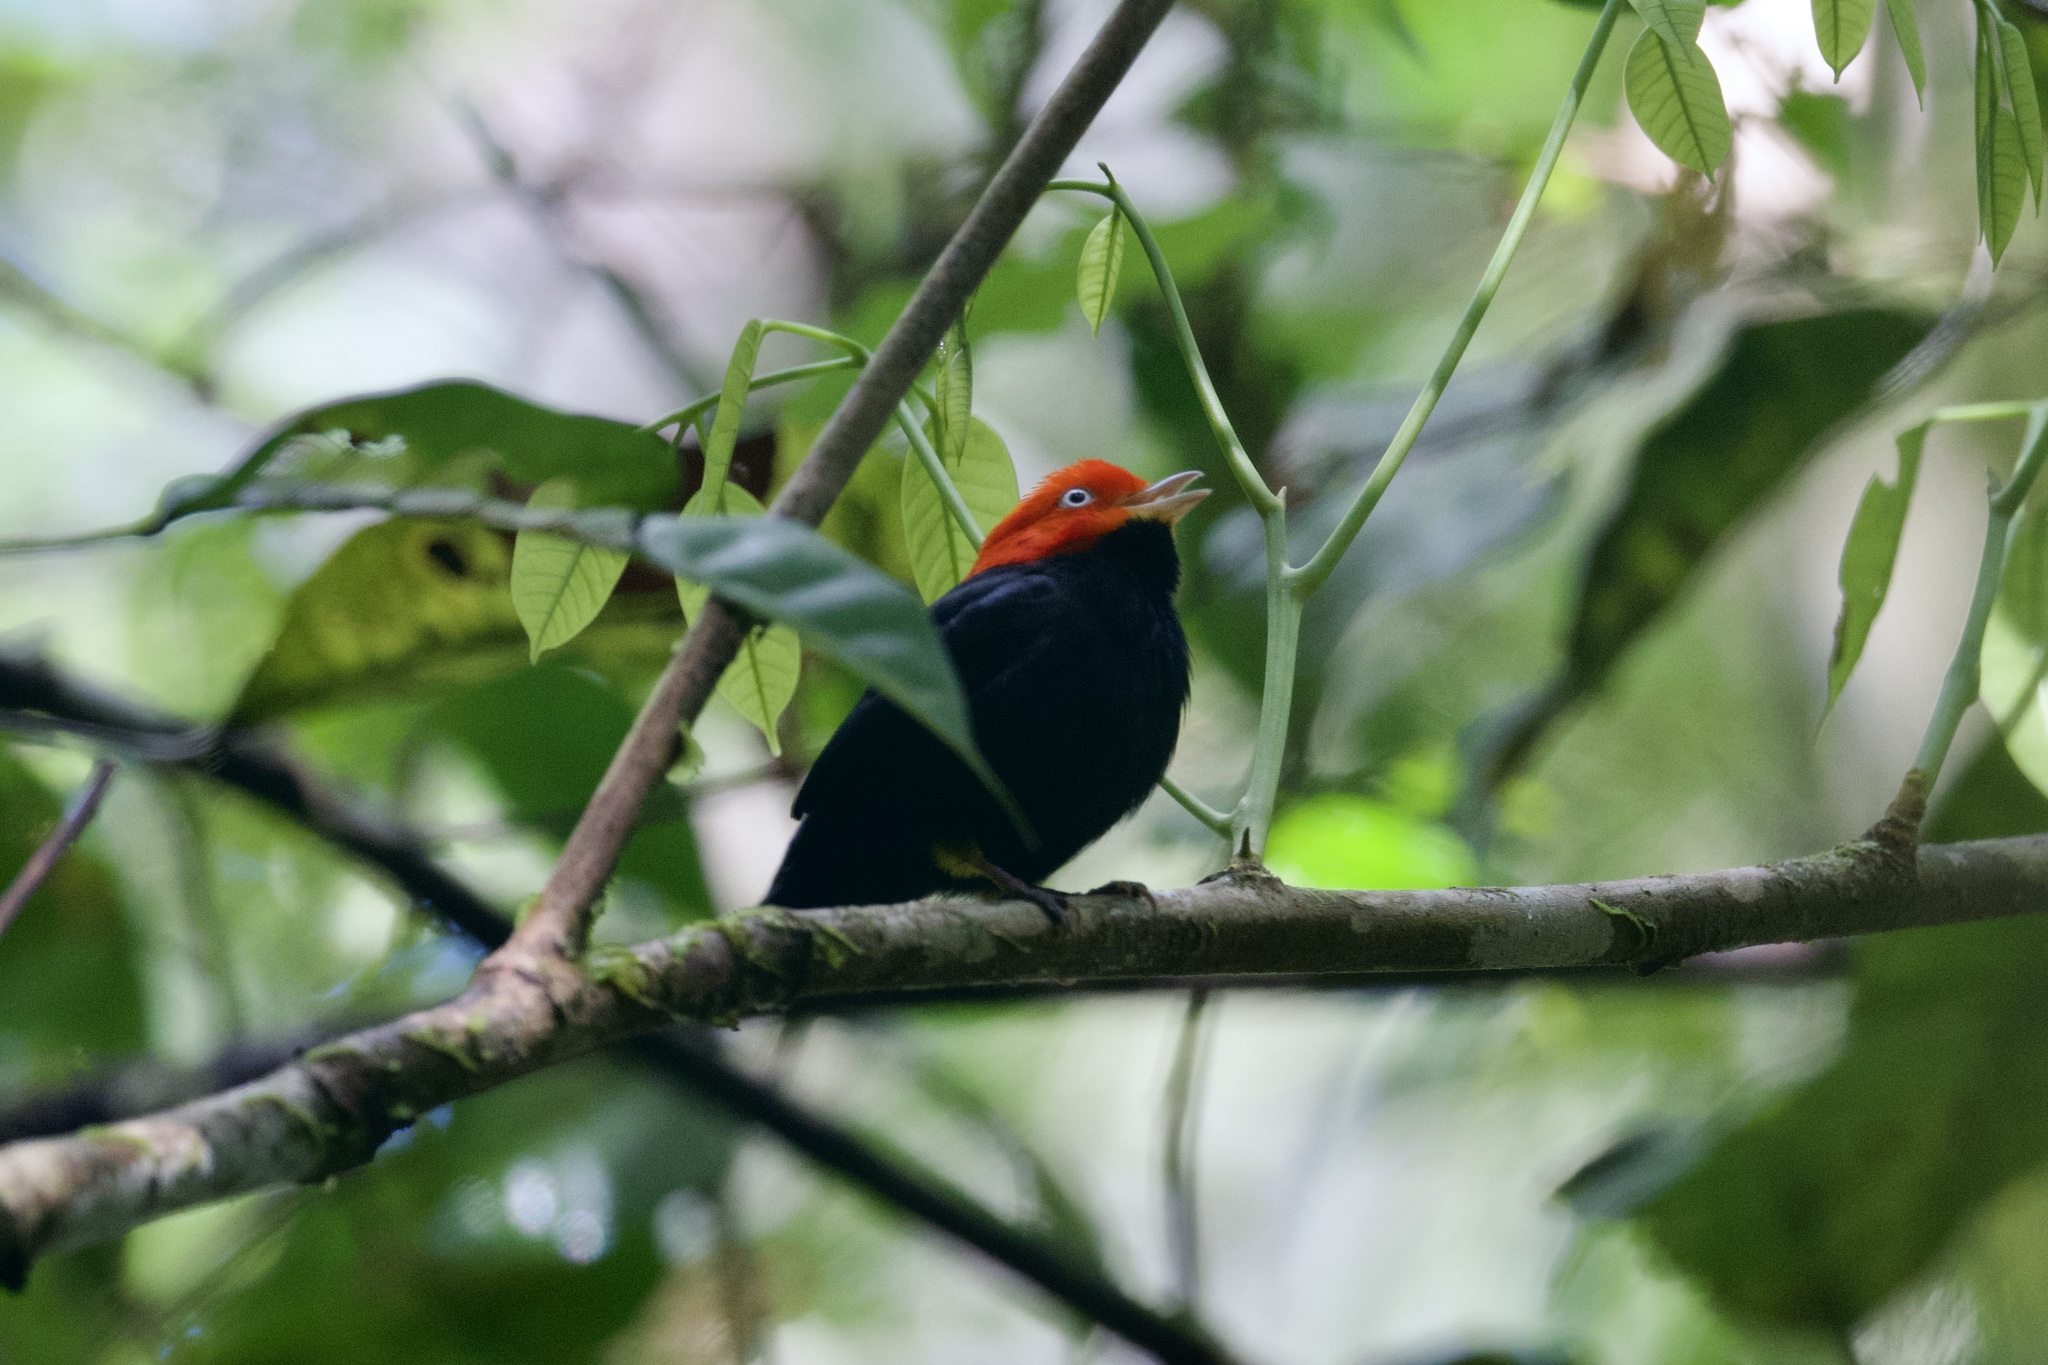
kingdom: Animalia
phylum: Chordata
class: Aves
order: Passeriformes
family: Pipridae
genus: Pipra
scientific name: Pipra mentalis
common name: Red-capped manakin
